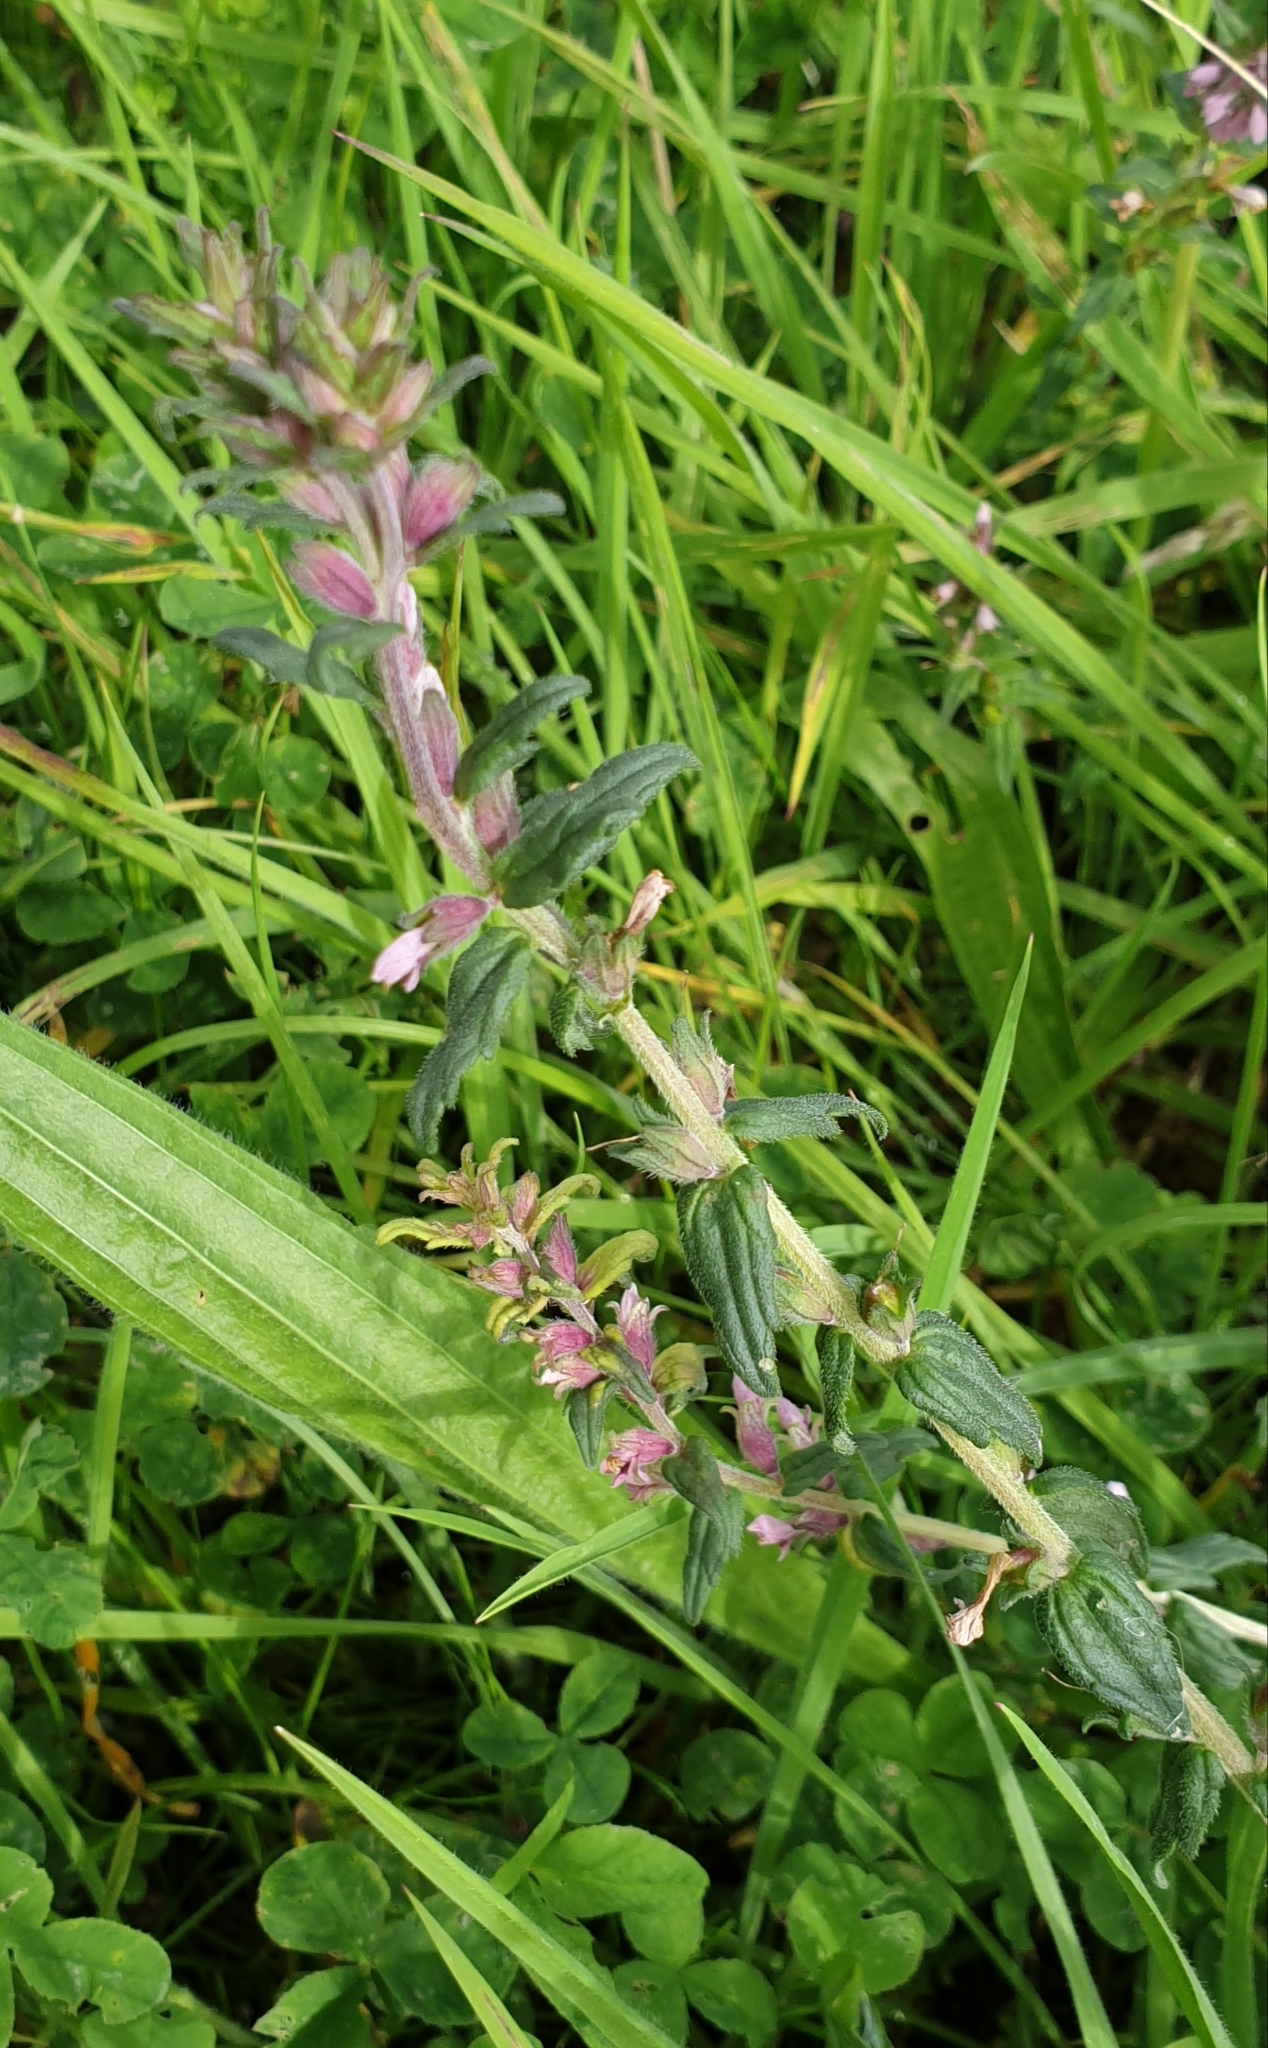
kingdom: Plantae
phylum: Tracheophyta
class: Magnoliopsida
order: Lamiales
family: Orobanchaceae
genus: Odontites
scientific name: Odontites vernus
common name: Red bartsia
